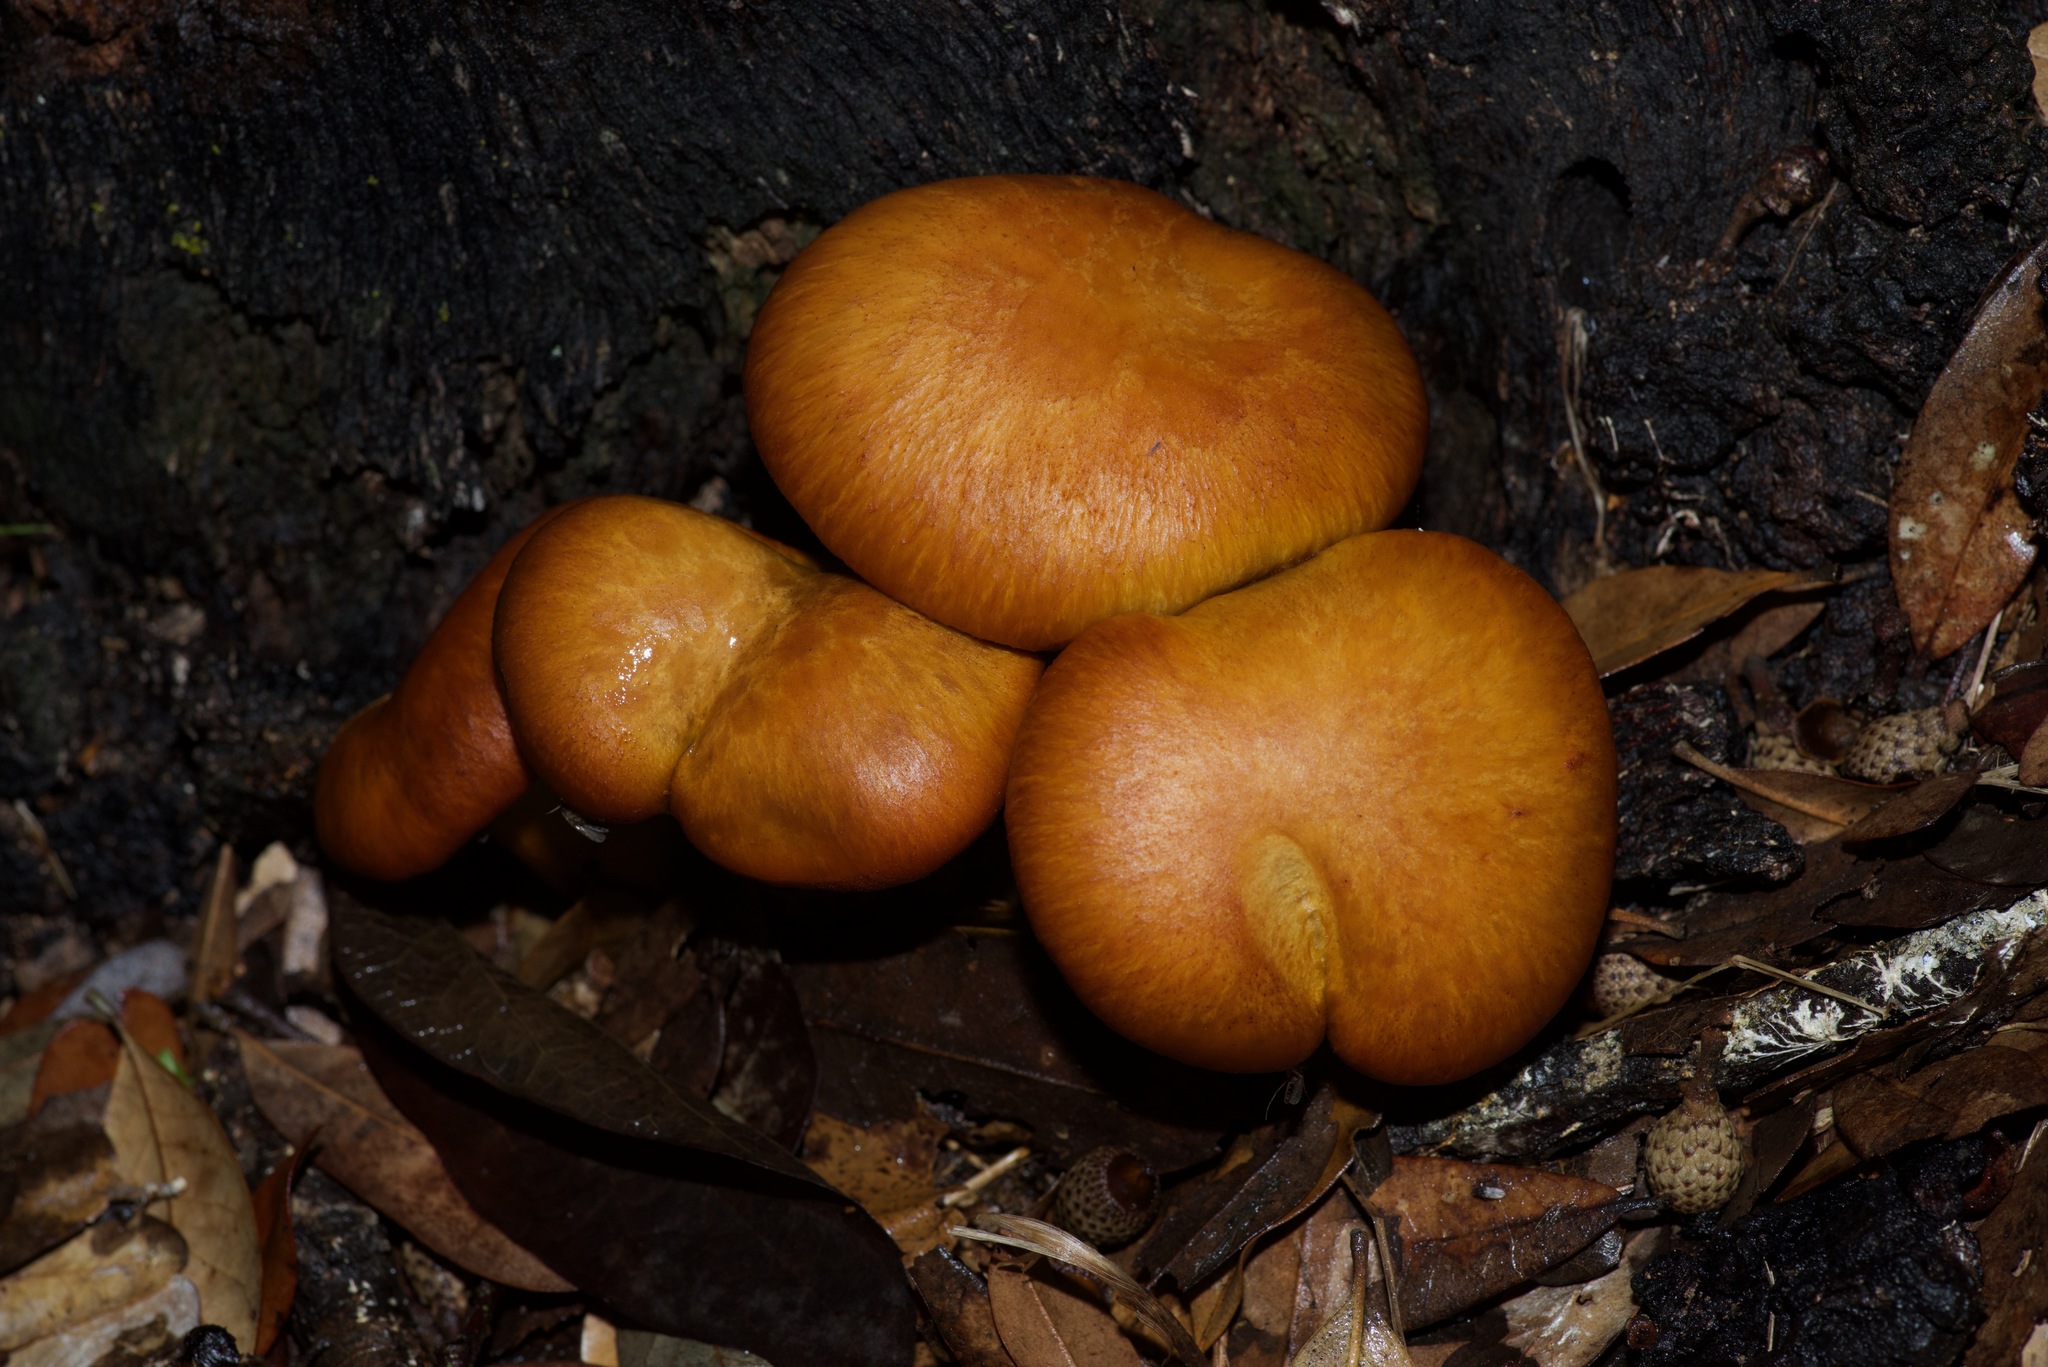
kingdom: Fungi
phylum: Basidiomycota
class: Agaricomycetes
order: Agaricales
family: Omphalotaceae
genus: Omphalotus
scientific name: Omphalotus subilludens
